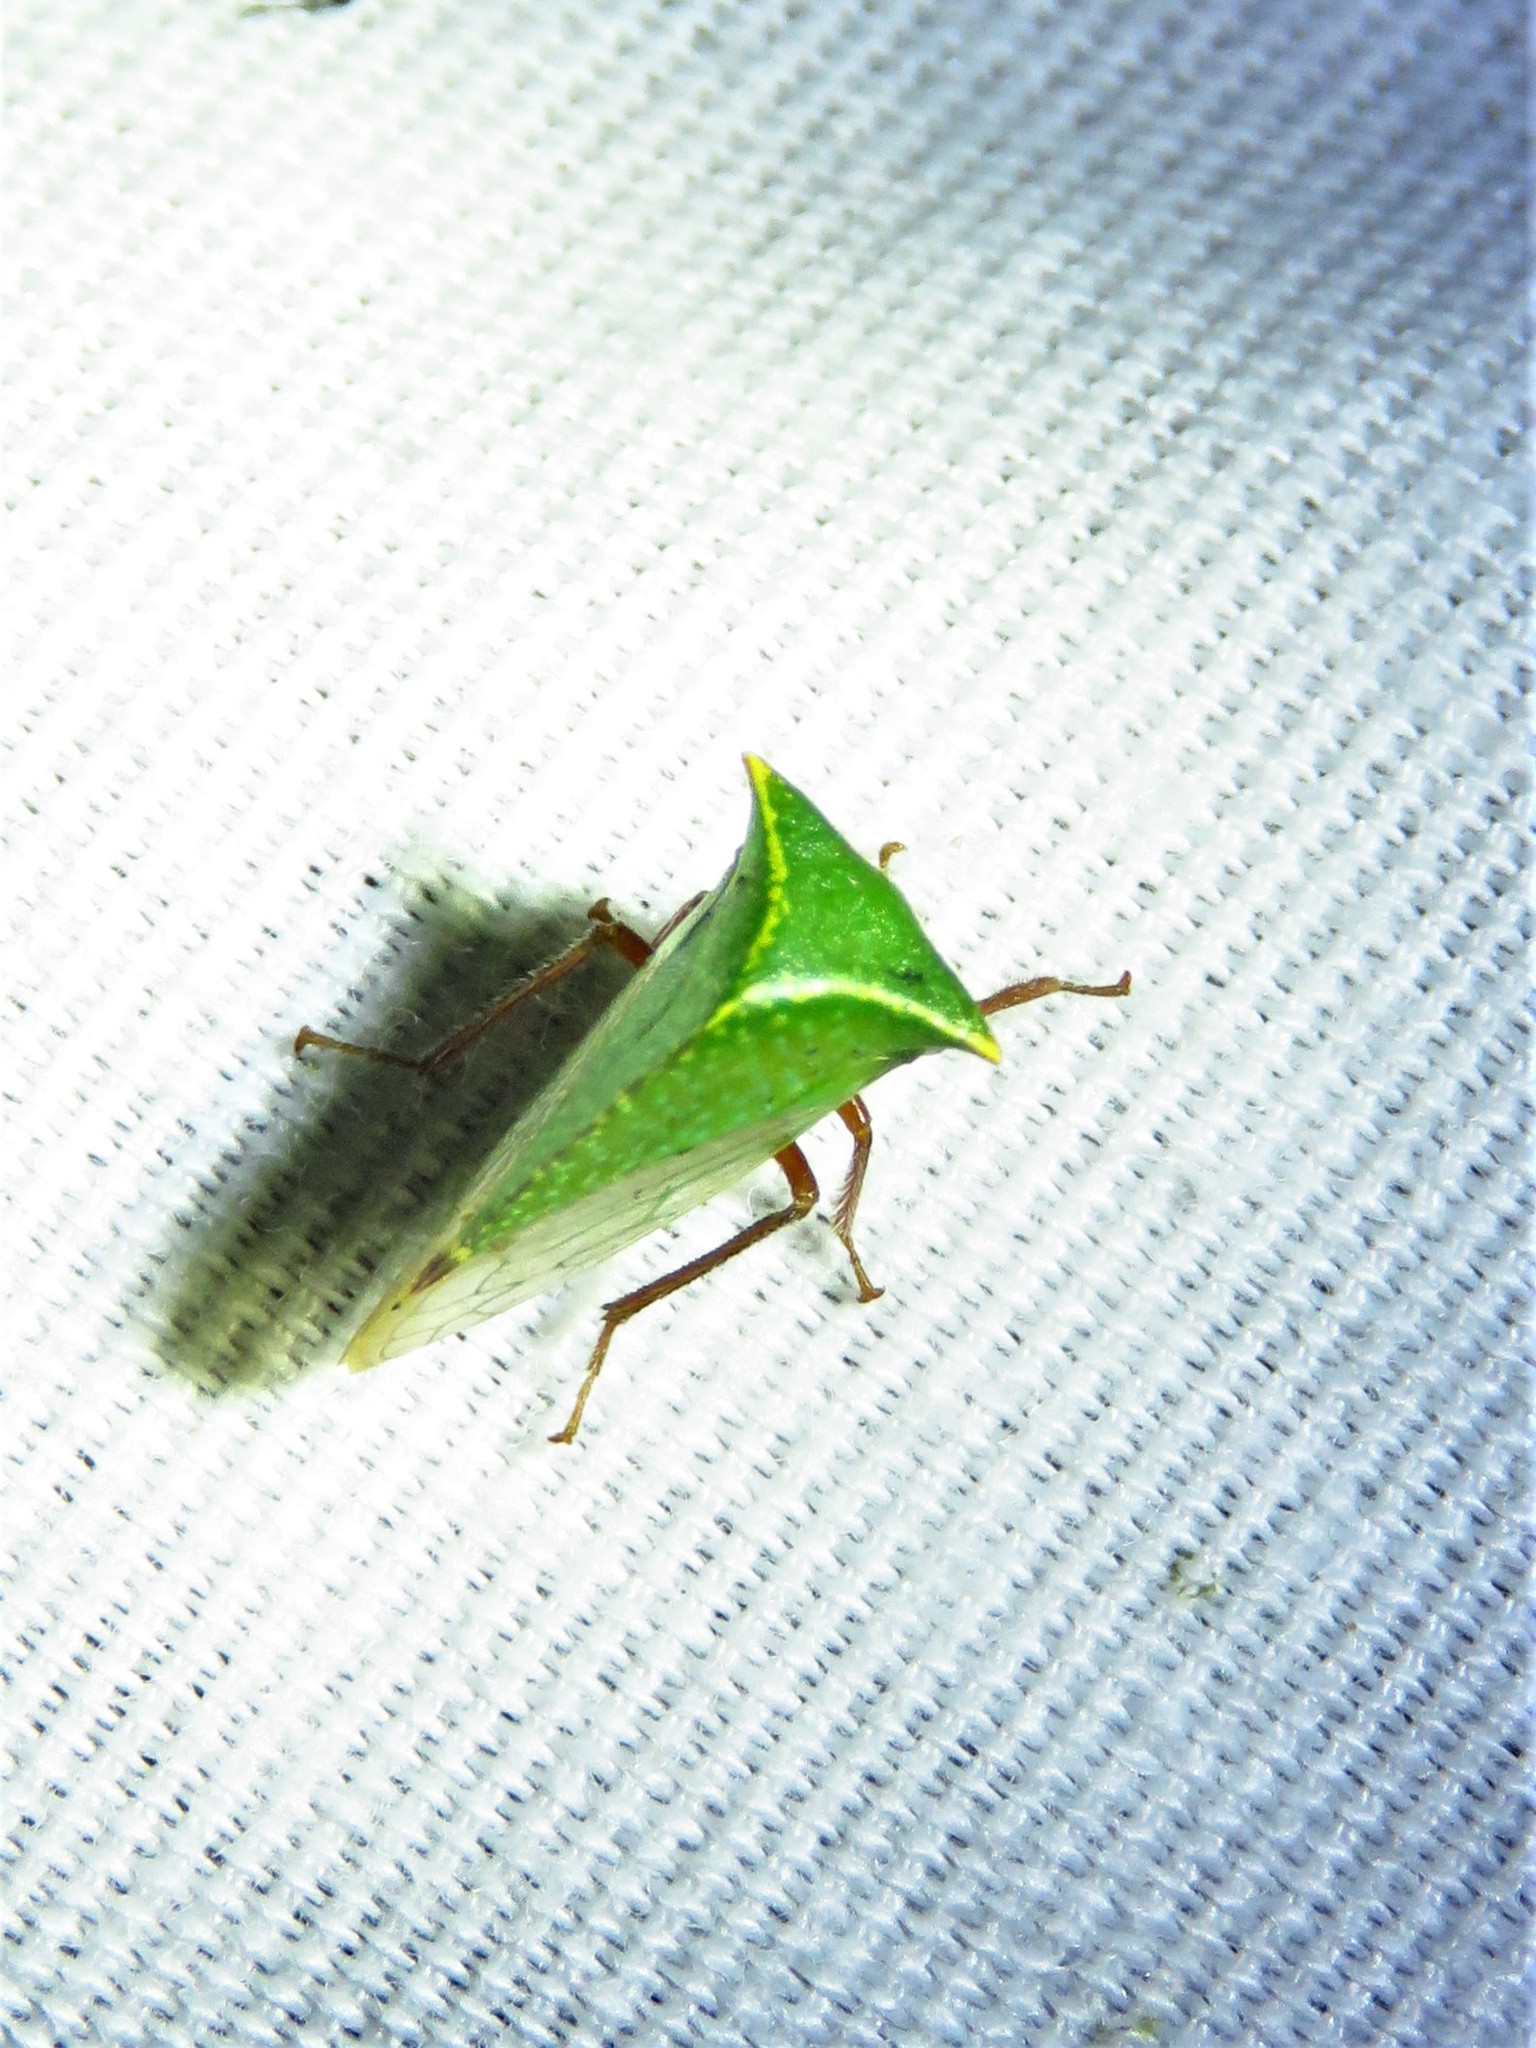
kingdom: Animalia
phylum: Arthropoda
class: Insecta
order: Hemiptera
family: Membracidae
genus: Tortistilus
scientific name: Tortistilus abnorma
